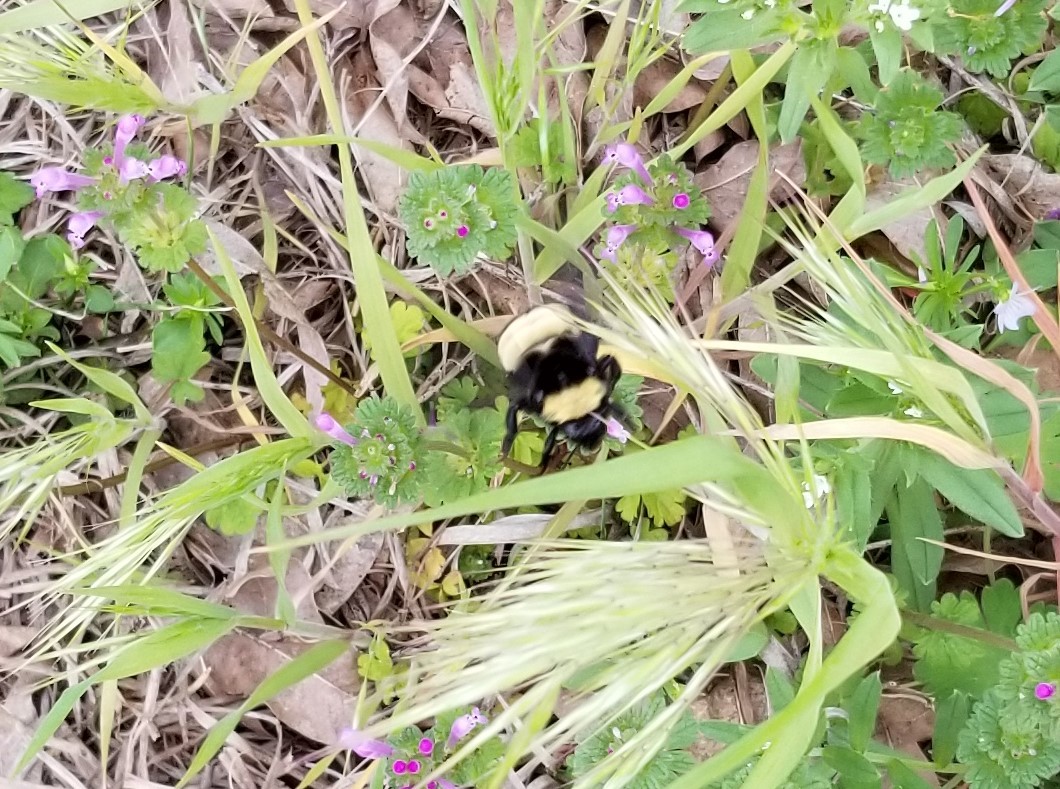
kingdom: Animalia
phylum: Arthropoda
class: Insecta
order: Hymenoptera
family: Apidae
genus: Bombus
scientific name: Bombus pensylvanicus
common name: Bumble bee
